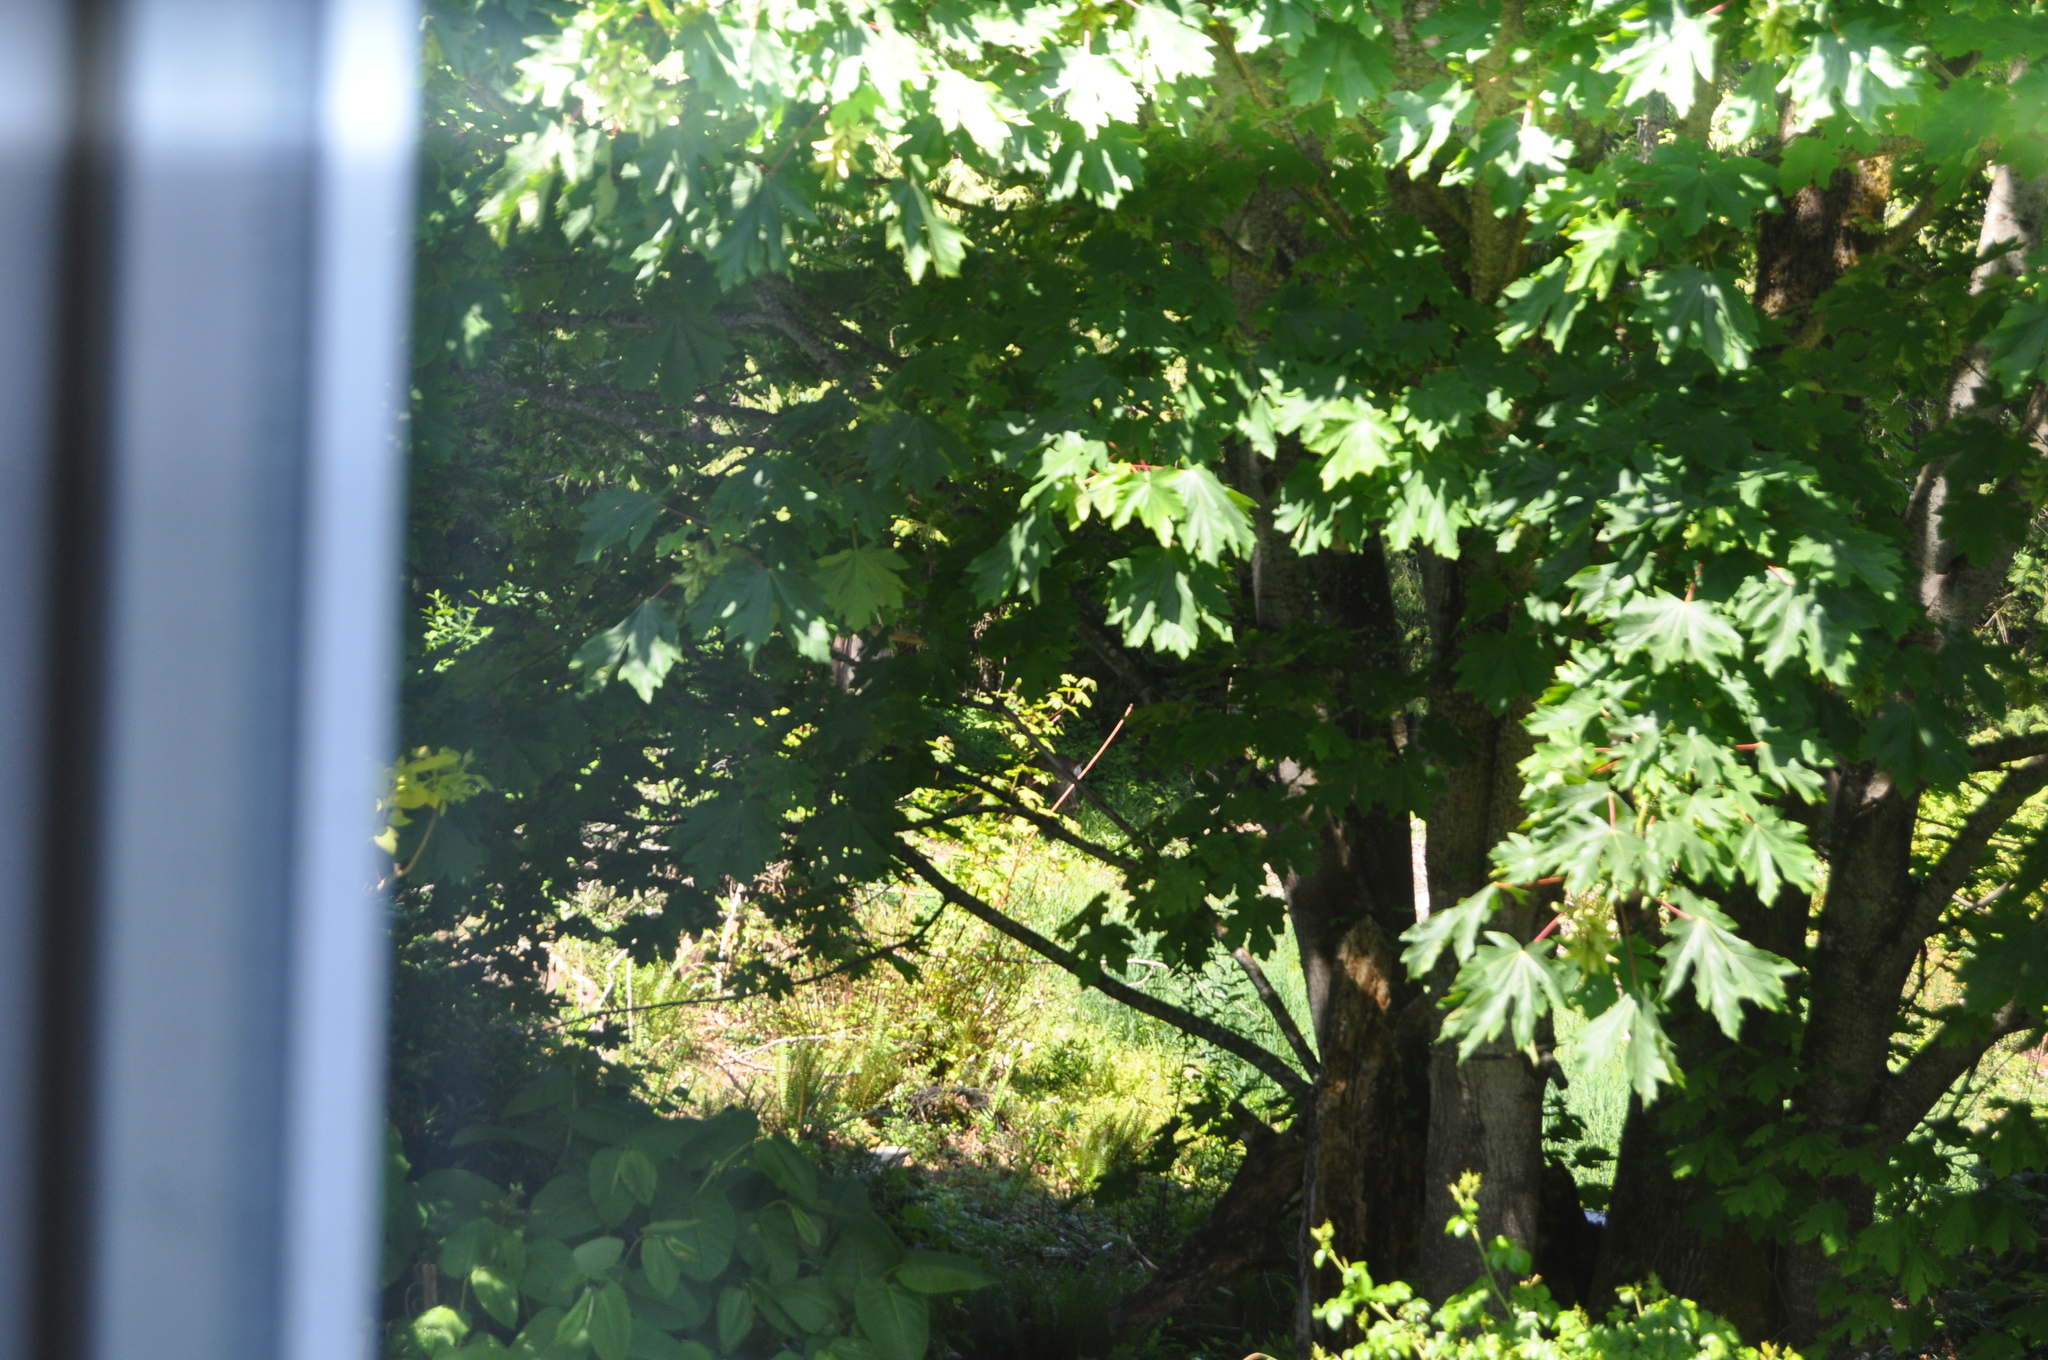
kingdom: Animalia
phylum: Chordata
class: Mammalia
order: Artiodactyla
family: Cervidae
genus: Odocoileus
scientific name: Odocoileus hemionus
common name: Mule deer
